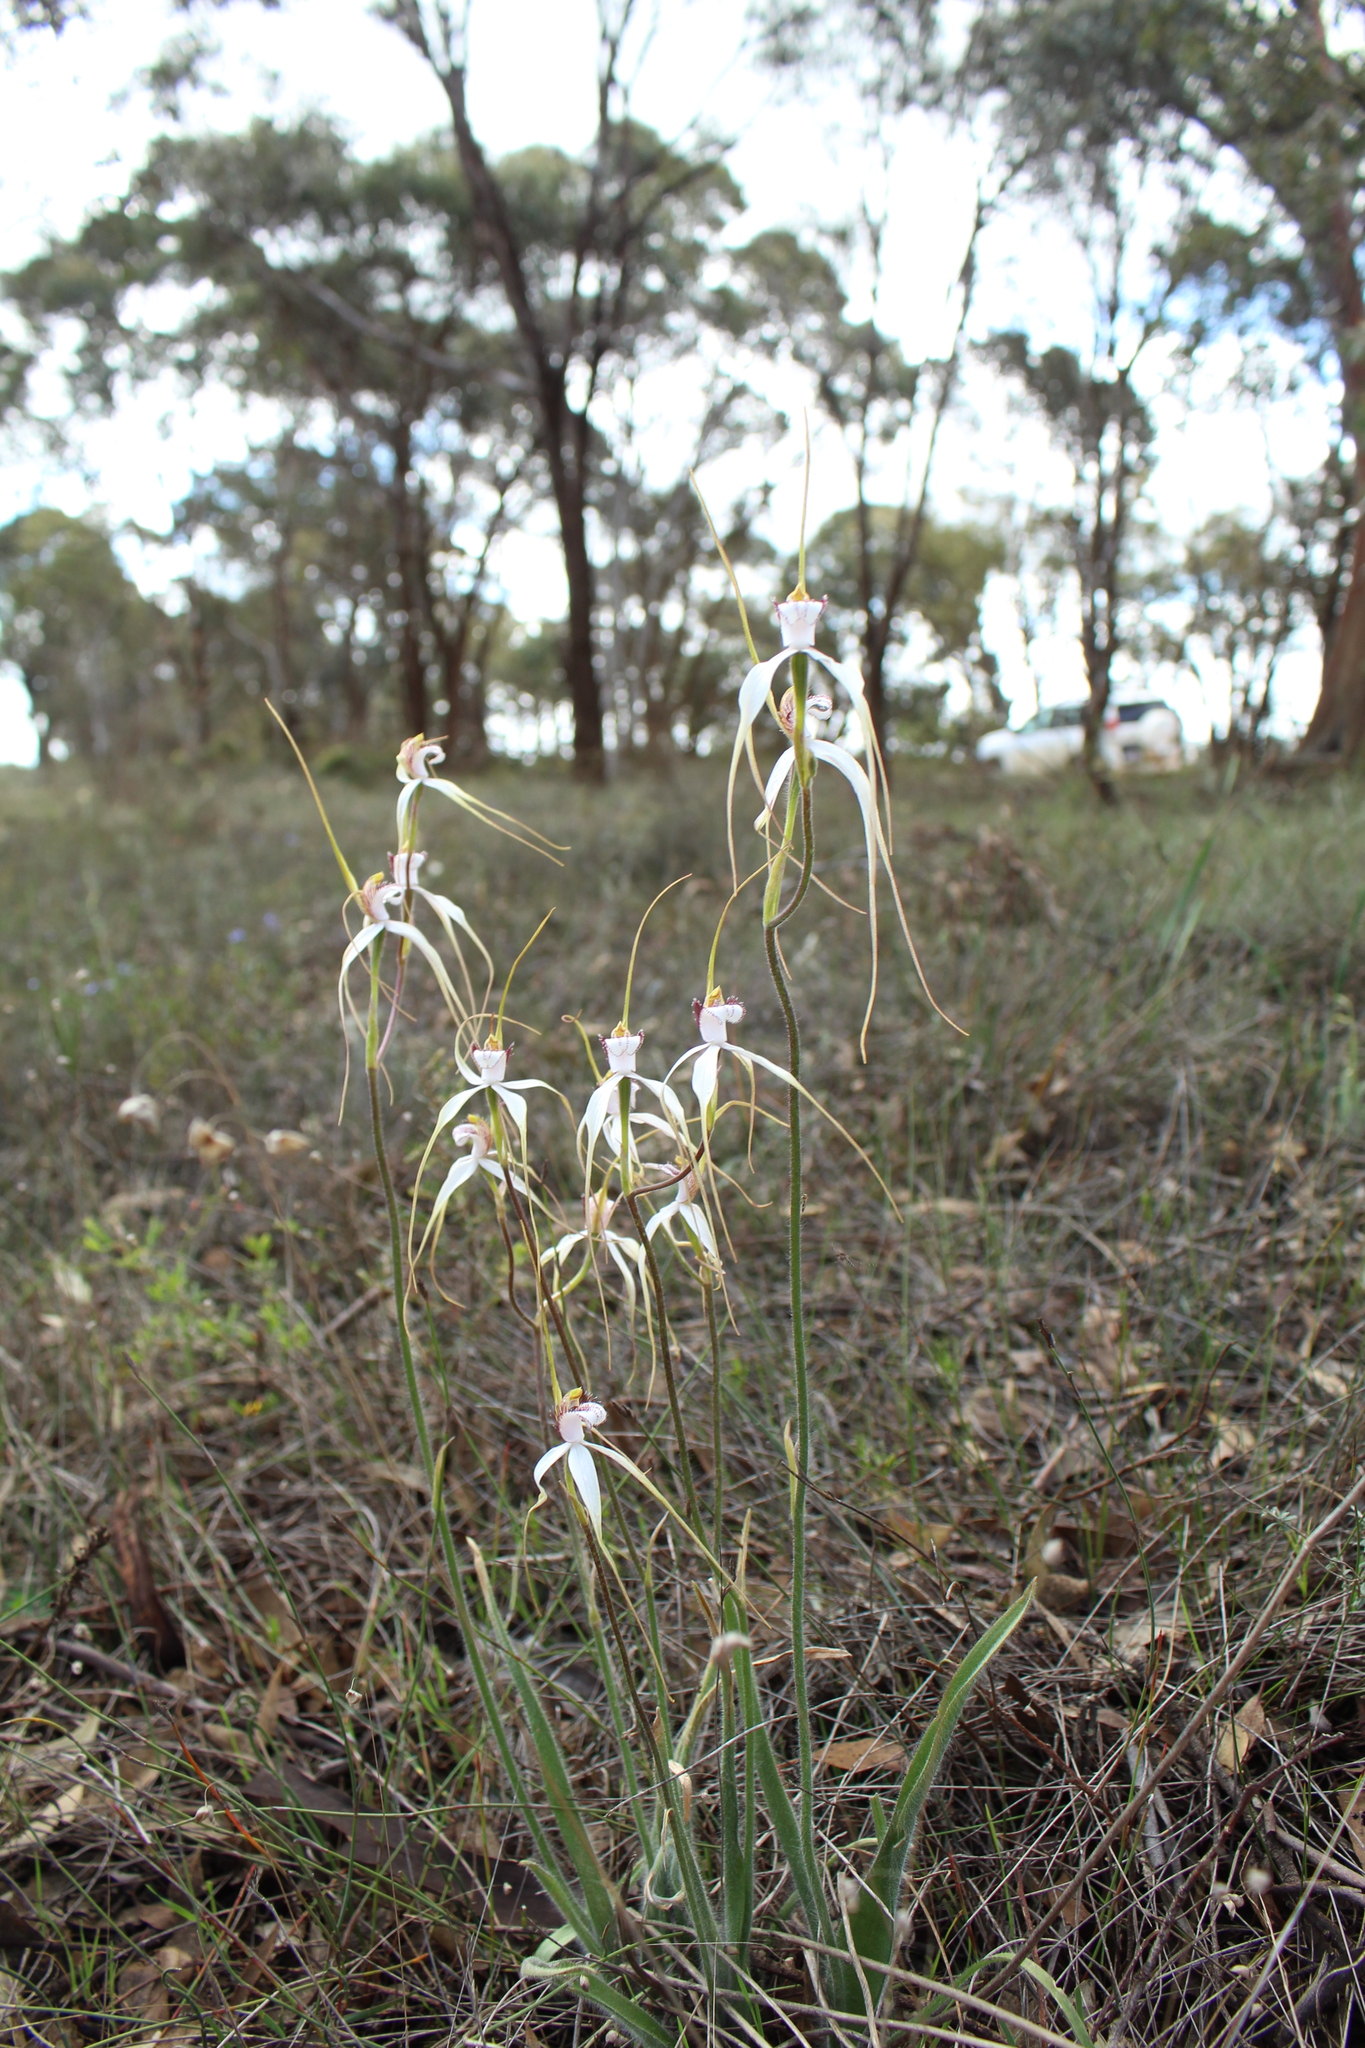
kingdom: Plantae
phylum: Tracheophyta
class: Liliopsida
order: Asparagales
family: Orchidaceae
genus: Caladenia
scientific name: Caladenia longicauda
